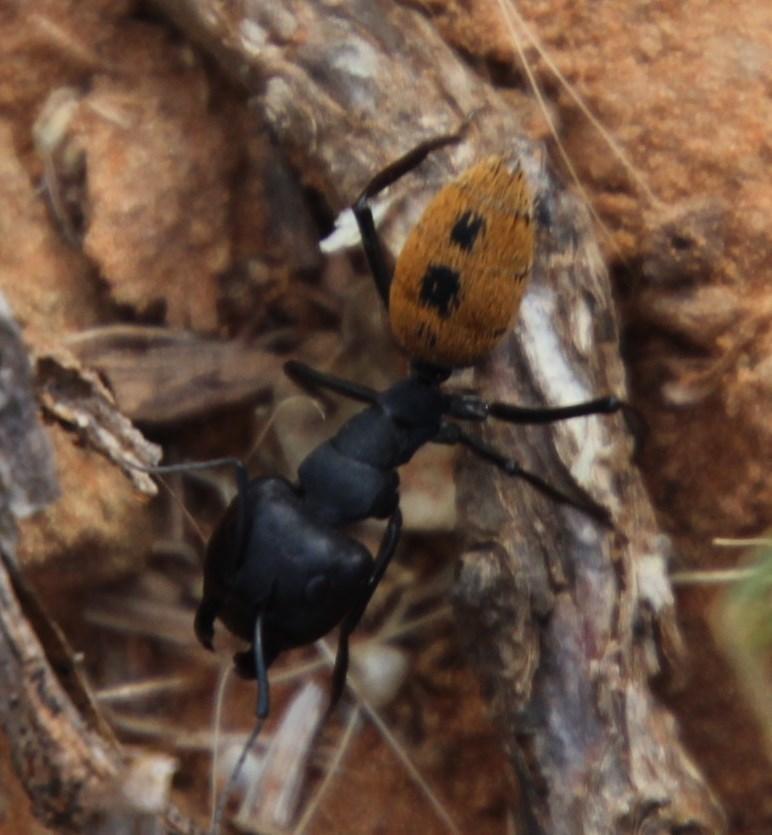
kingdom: Animalia
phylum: Arthropoda
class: Insecta
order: Hymenoptera
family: Formicidae
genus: Camponotus
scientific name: Camponotus fulvopilosus
